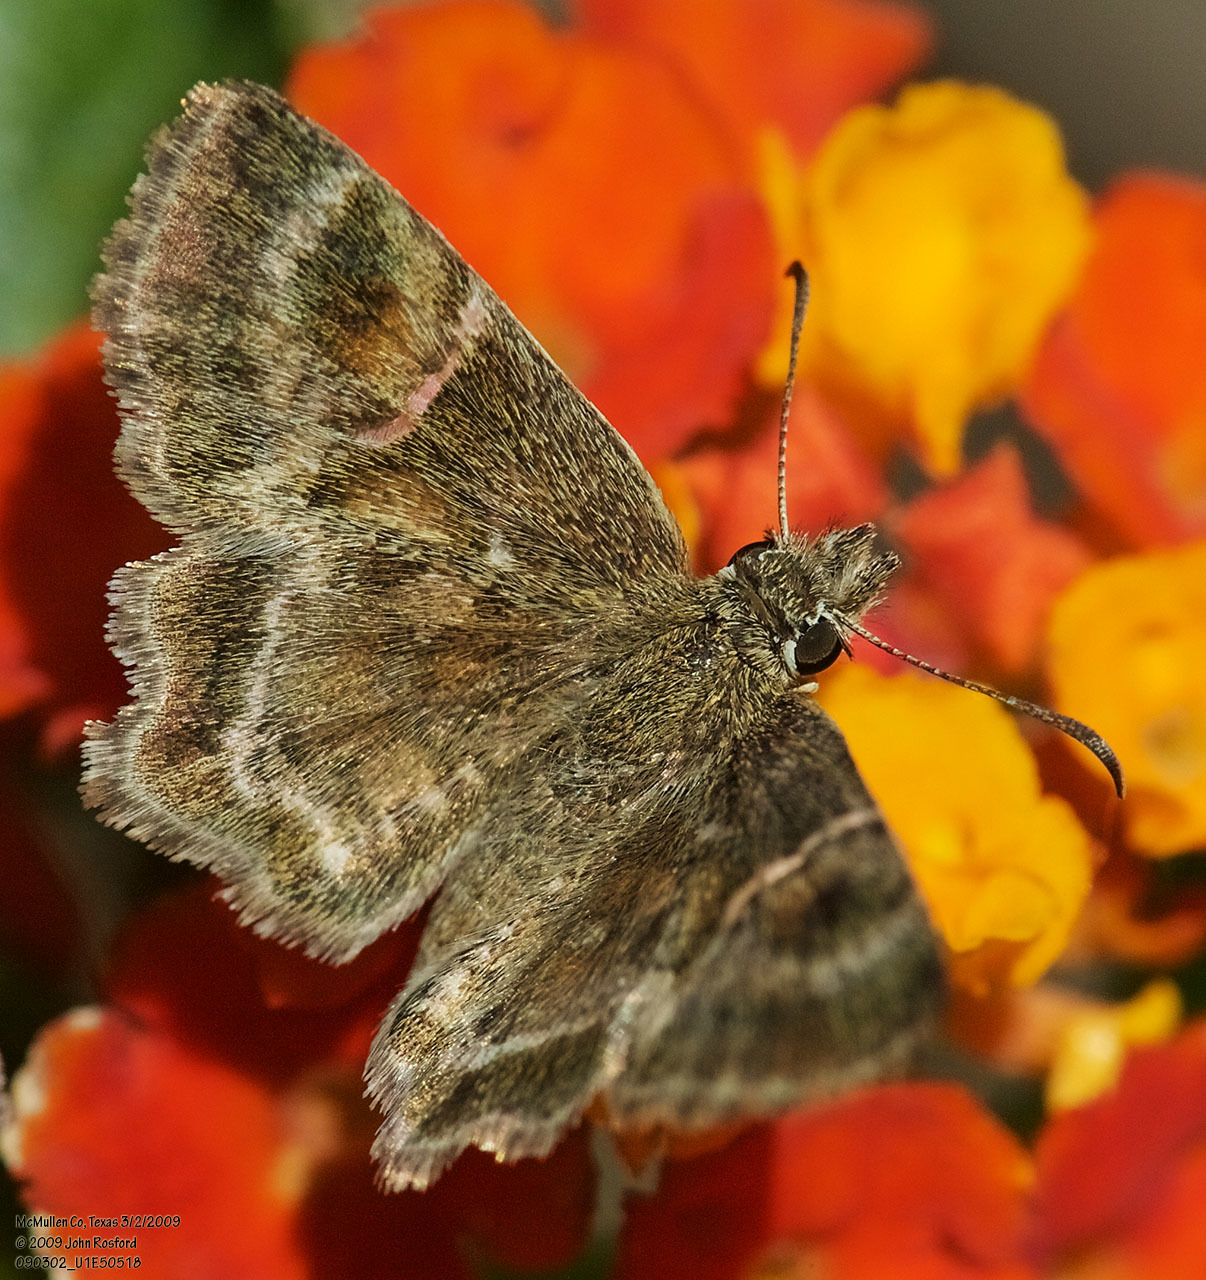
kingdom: Animalia
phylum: Arthropoda
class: Insecta
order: Lepidoptera
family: Hesperiidae
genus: Systasea
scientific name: Systasea pulverulenta
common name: Texas powdered skipper
